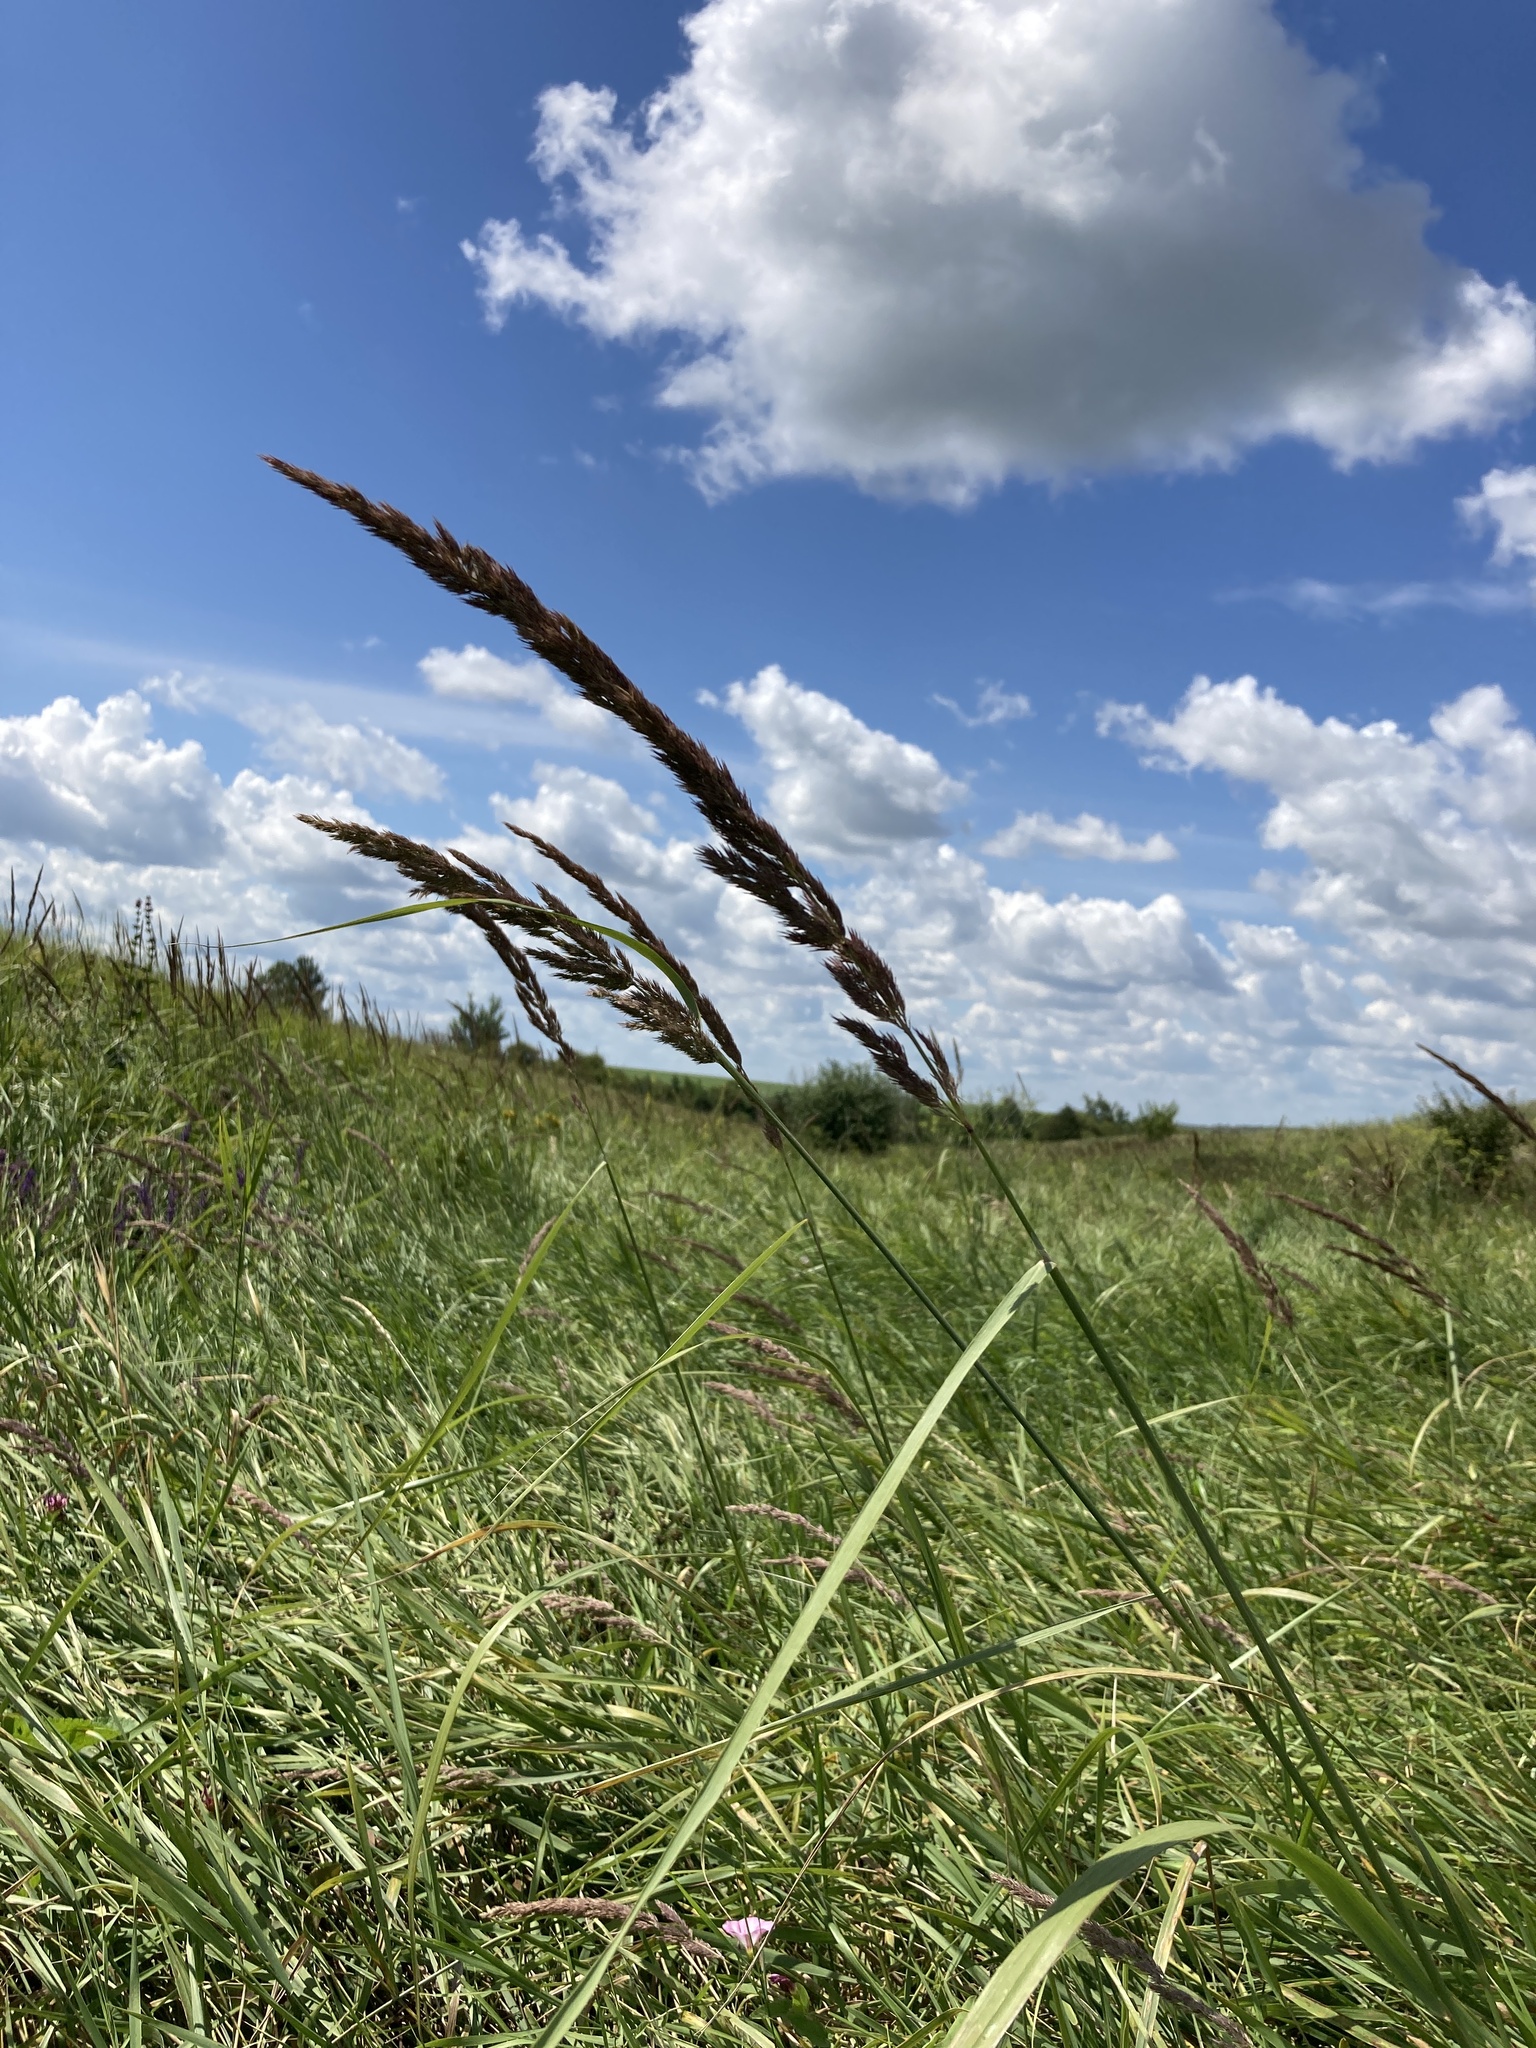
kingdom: Plantae
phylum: Tracheophyta
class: Liliopsida
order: Poales
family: Poaceae
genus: Calamagrostis
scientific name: Calamagrostis epigejos
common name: Wood small-reed
